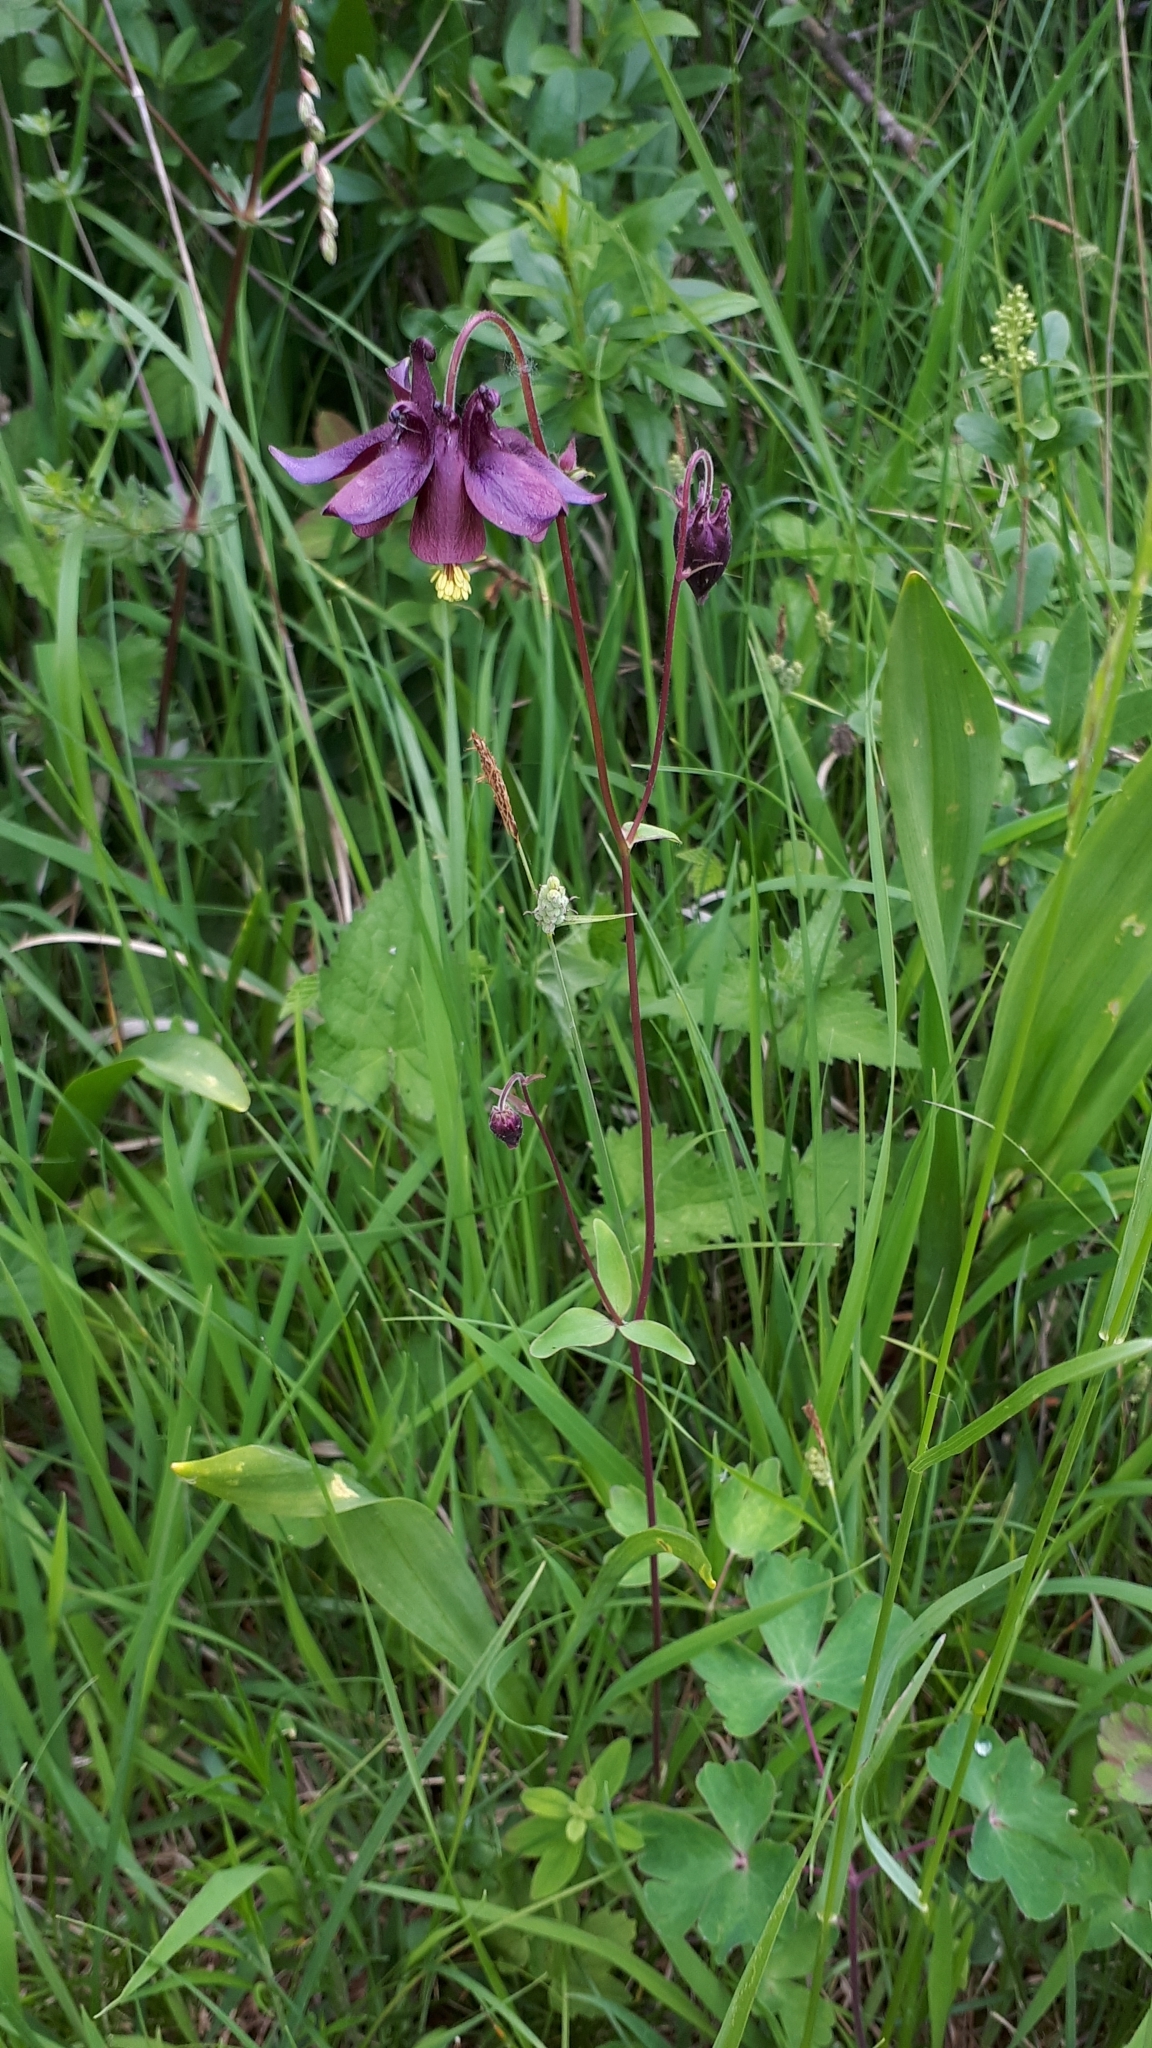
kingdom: Plantae
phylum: Tracheophyta
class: Magnoliopsida
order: Ranunculales
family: Ranunculaceae
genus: Aquilegia
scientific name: Aquilegia atrata
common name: Dark columbine
